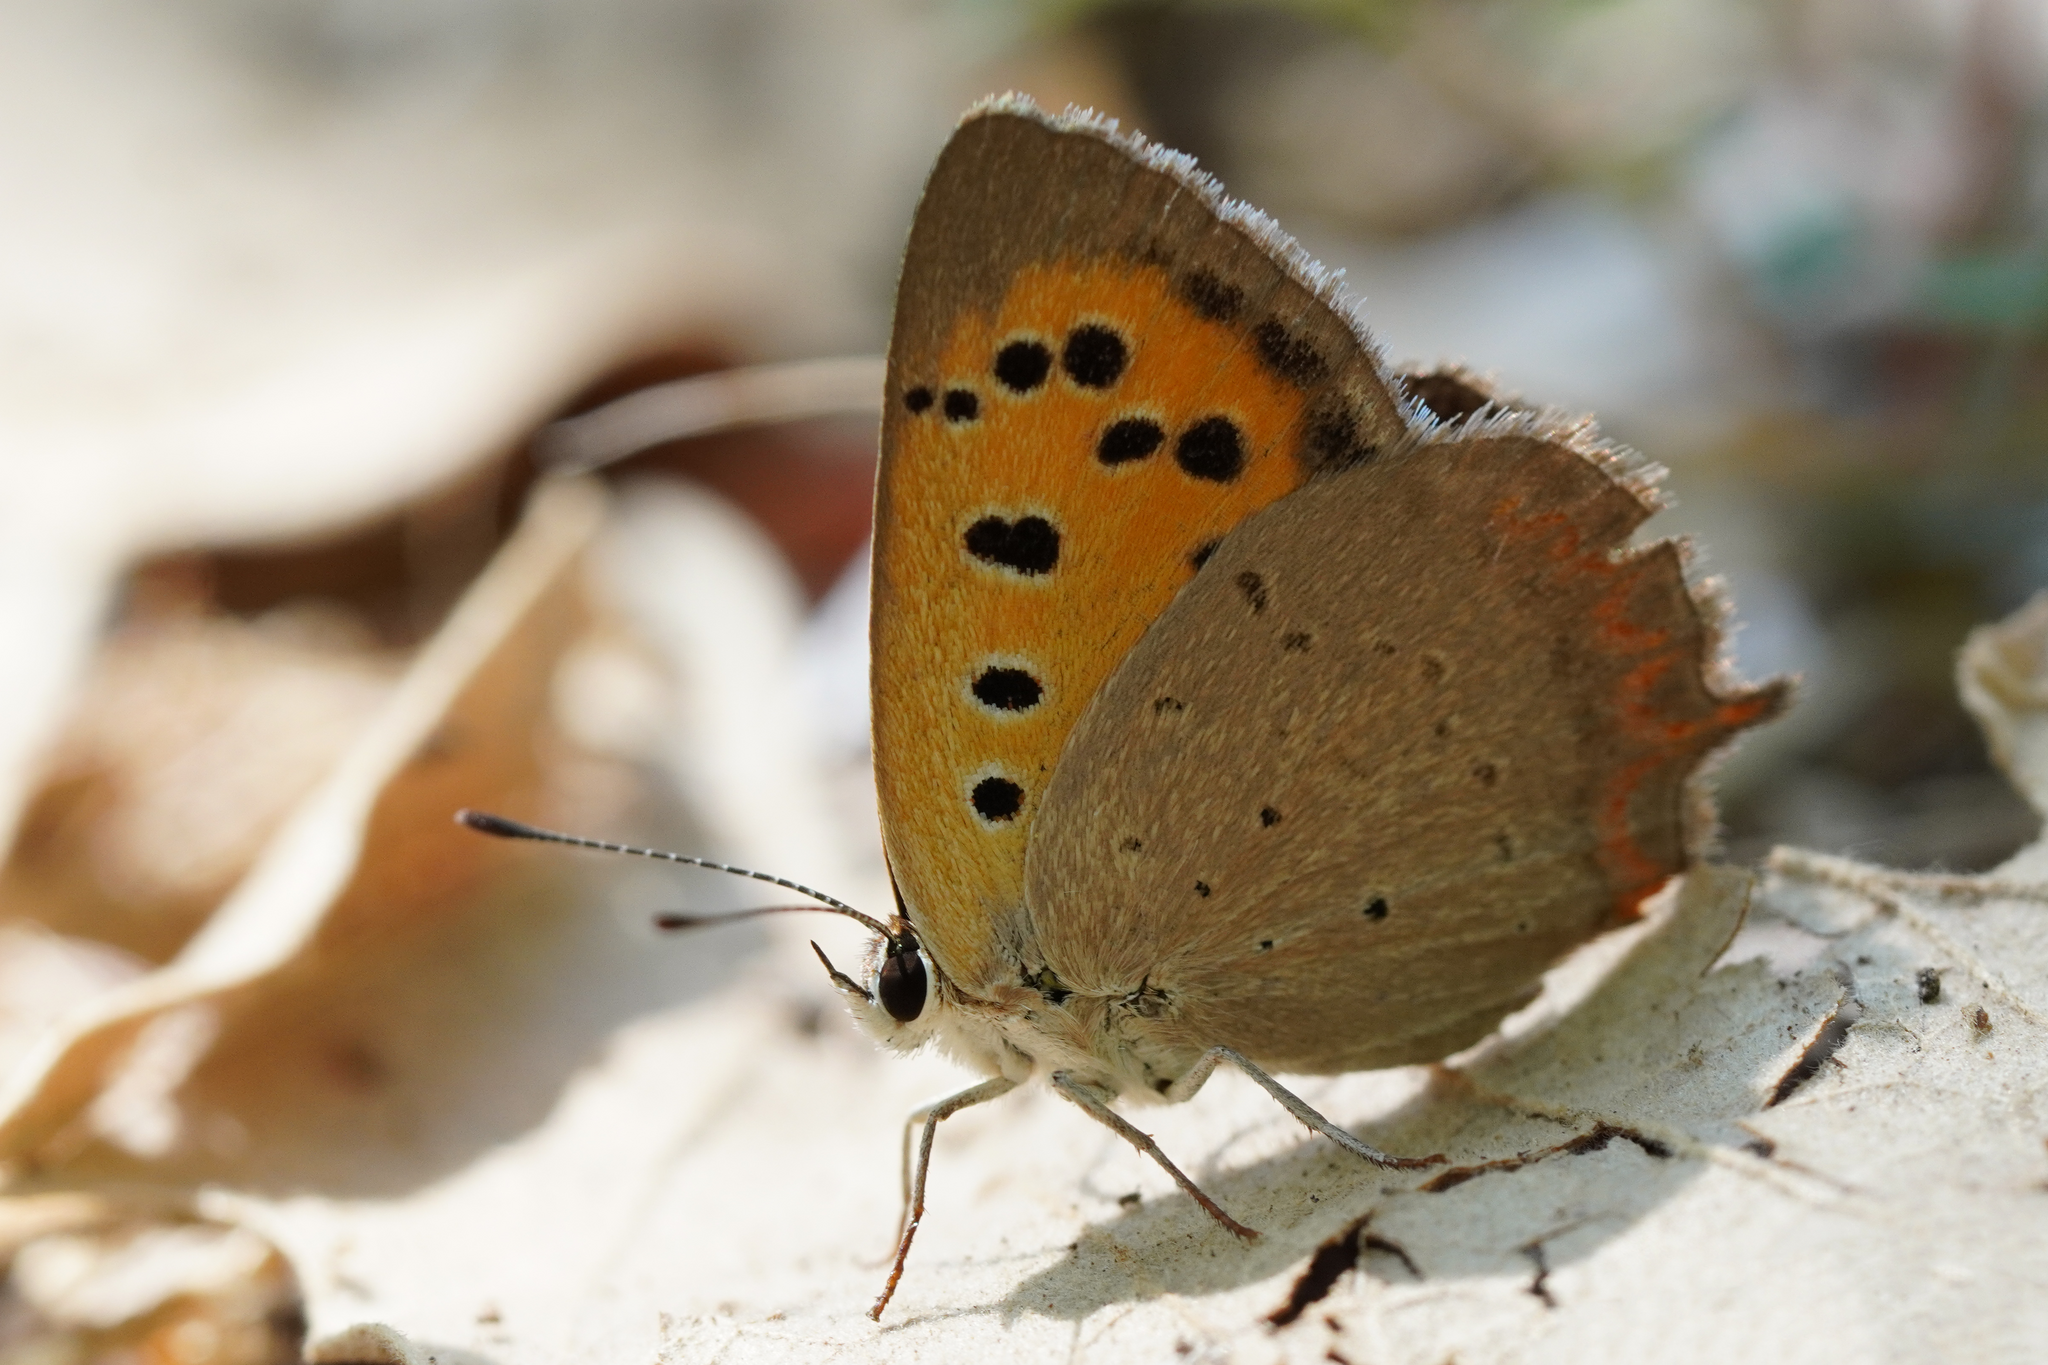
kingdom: Animalia
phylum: Arthropoda
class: Insecta
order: Lepidoptera
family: Lycaenidae
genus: Lycaena
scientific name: Lycaena phlaeas
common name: Small copper
